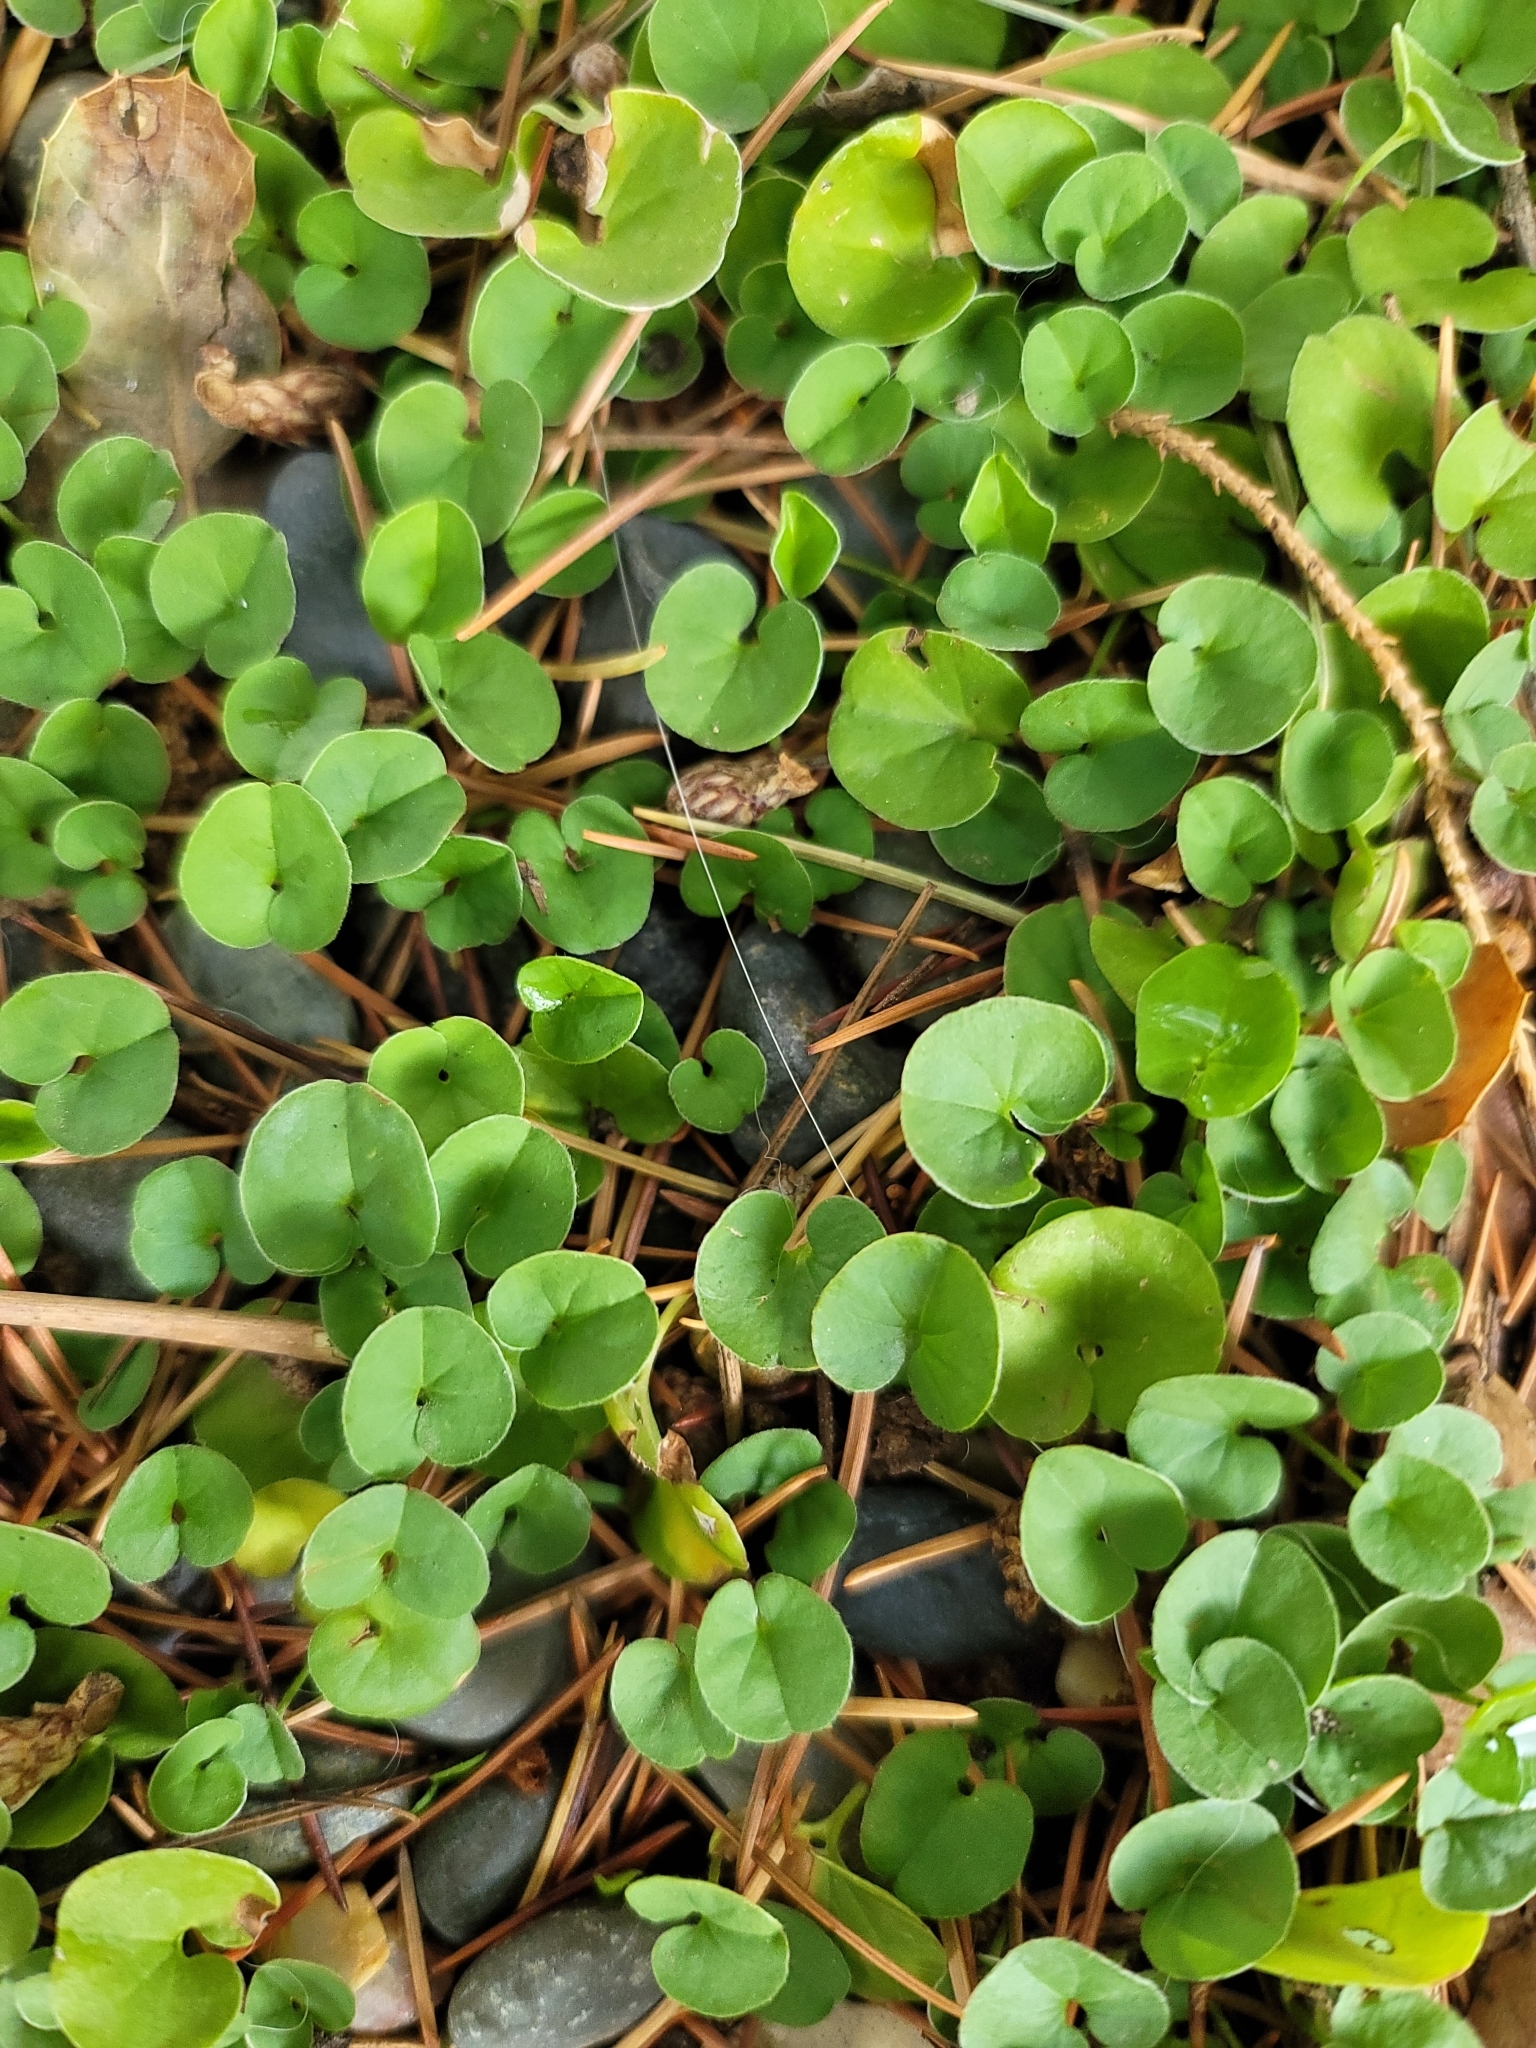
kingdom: Plantae
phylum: Tracheophyta
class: Magnoliopsida
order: Solanales
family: Convolvulaceae
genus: Dichondra
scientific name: Dichondra micrantha
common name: Kidneyweed
